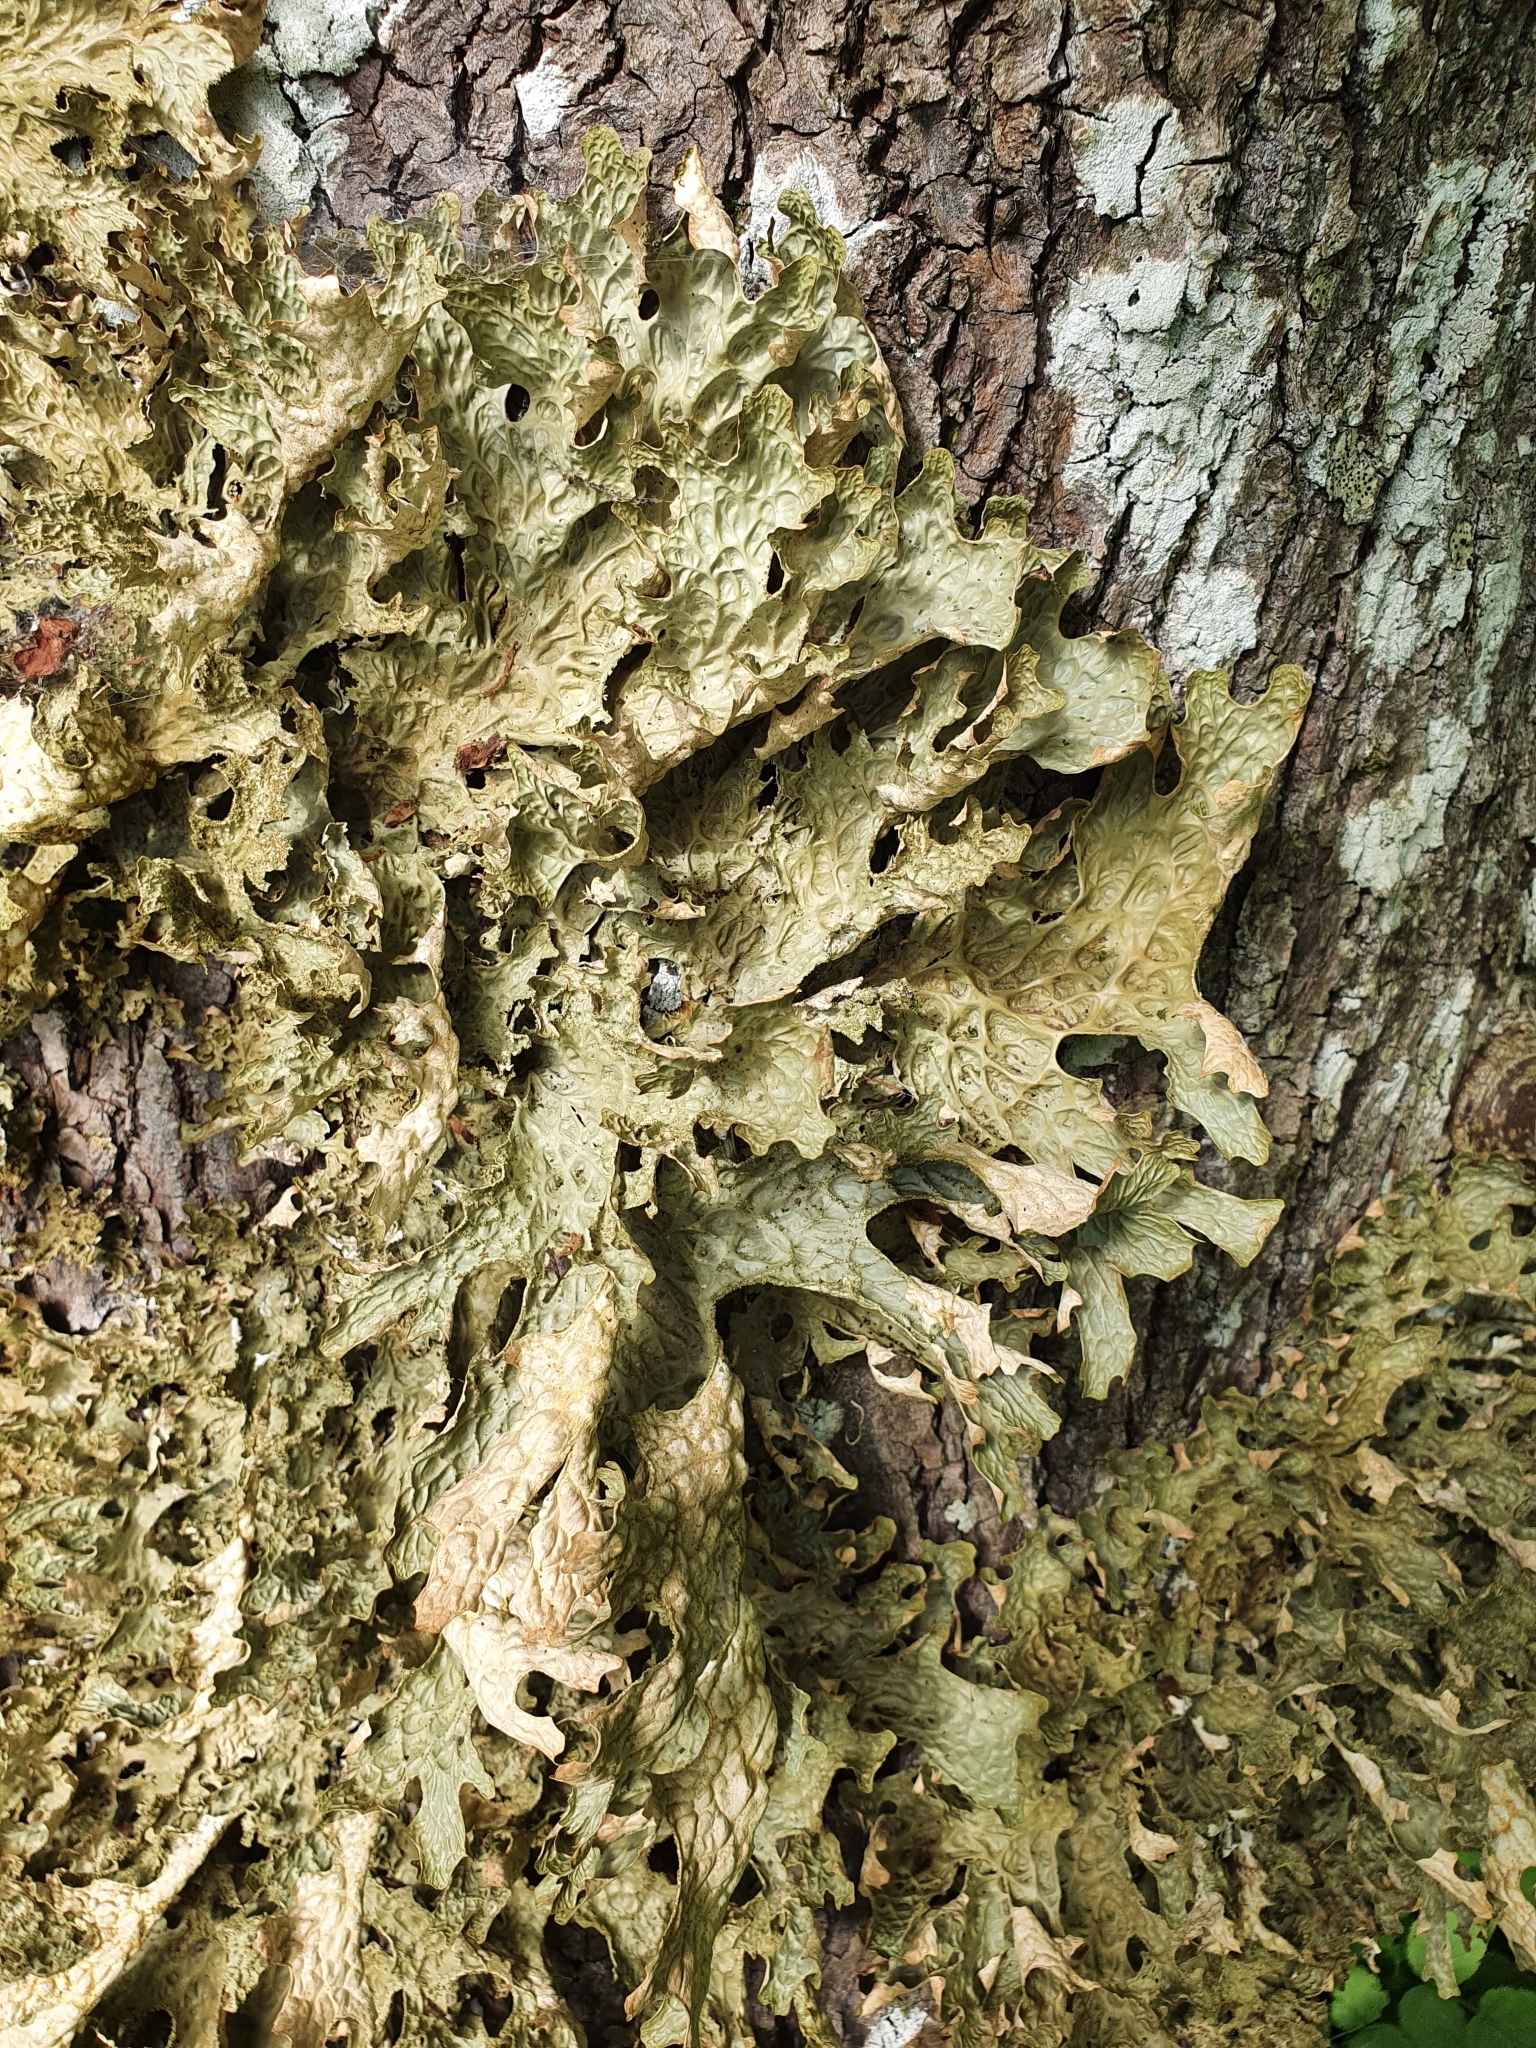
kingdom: Fungi
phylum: Ascomycota
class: Lecanoromycetes
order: Peltigerales
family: Lobariaceae
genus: Lobaria
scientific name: Lobaria pulmonaria
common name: Lungwort
